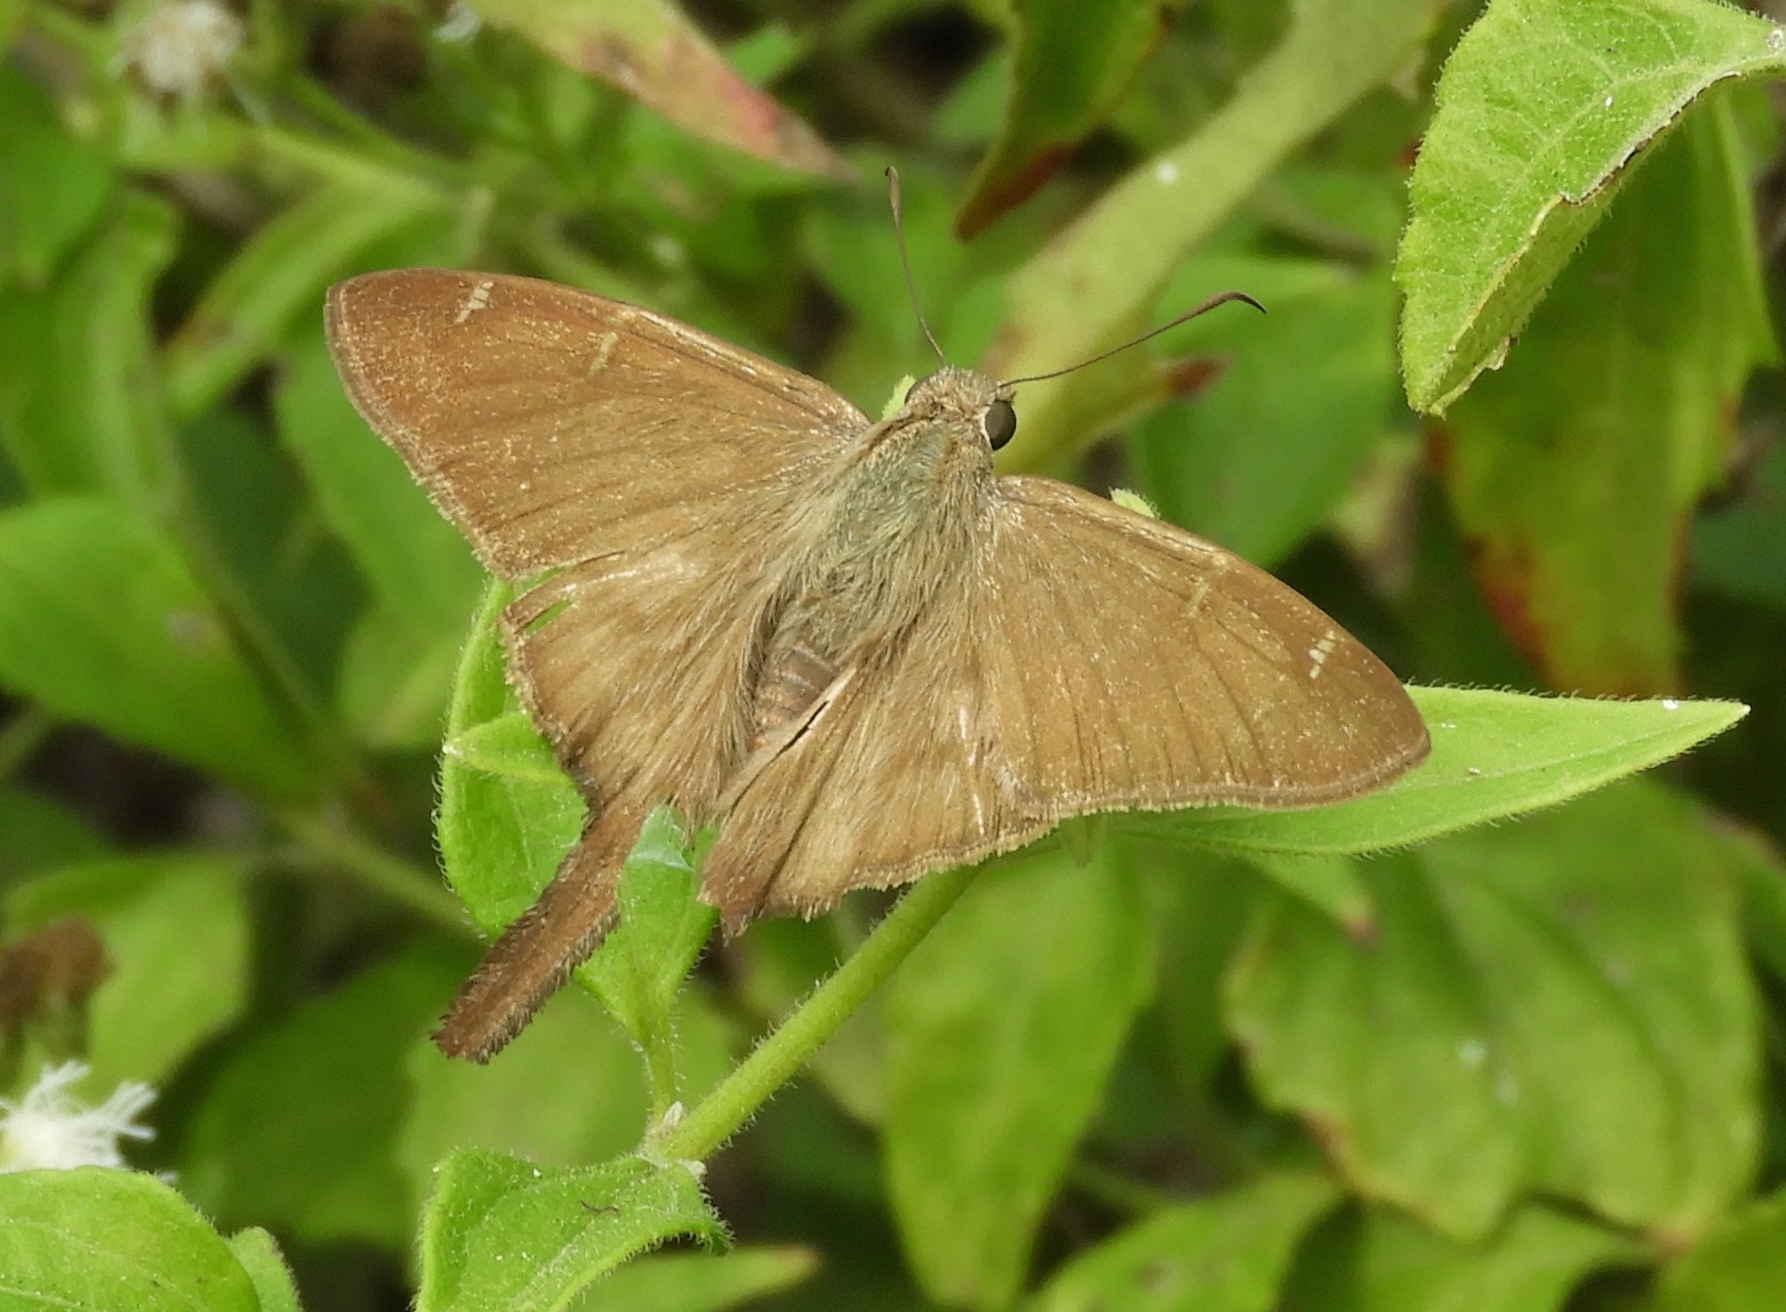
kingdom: Animalia
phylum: Arthropoda
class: Insecta
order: Lepidoptera
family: Hesperiidae
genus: Urbanus
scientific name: Urbanus simplicius
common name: Plain longtail
